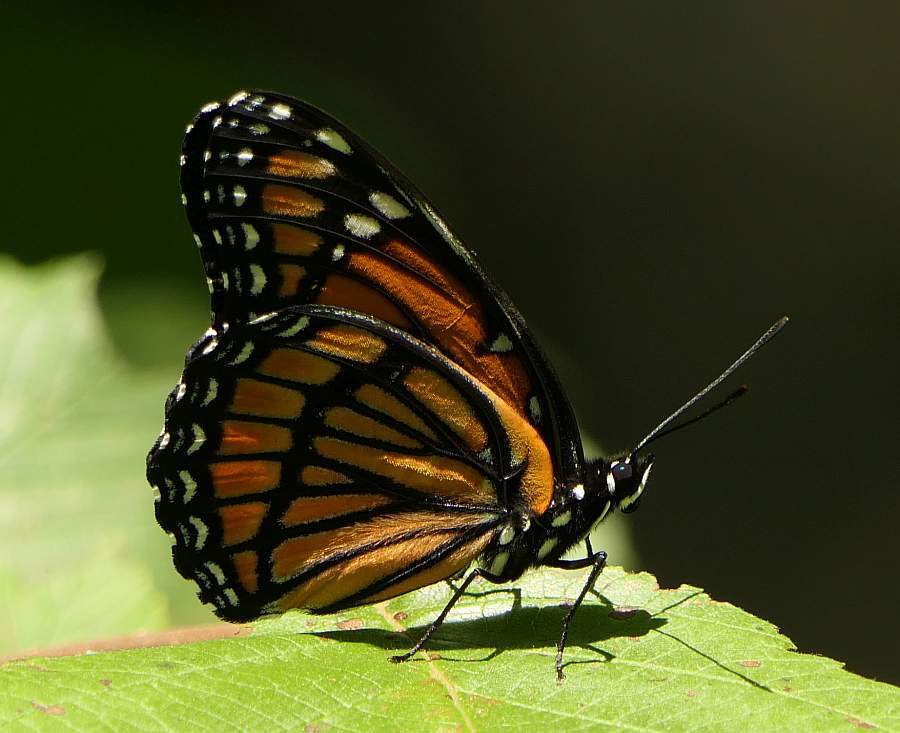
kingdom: Animalia
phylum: Arthropoda
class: Insecta
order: Lepidoptera
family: Nymphalidae
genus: Limenitis
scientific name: Limenitis archippus
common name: Viceroy
